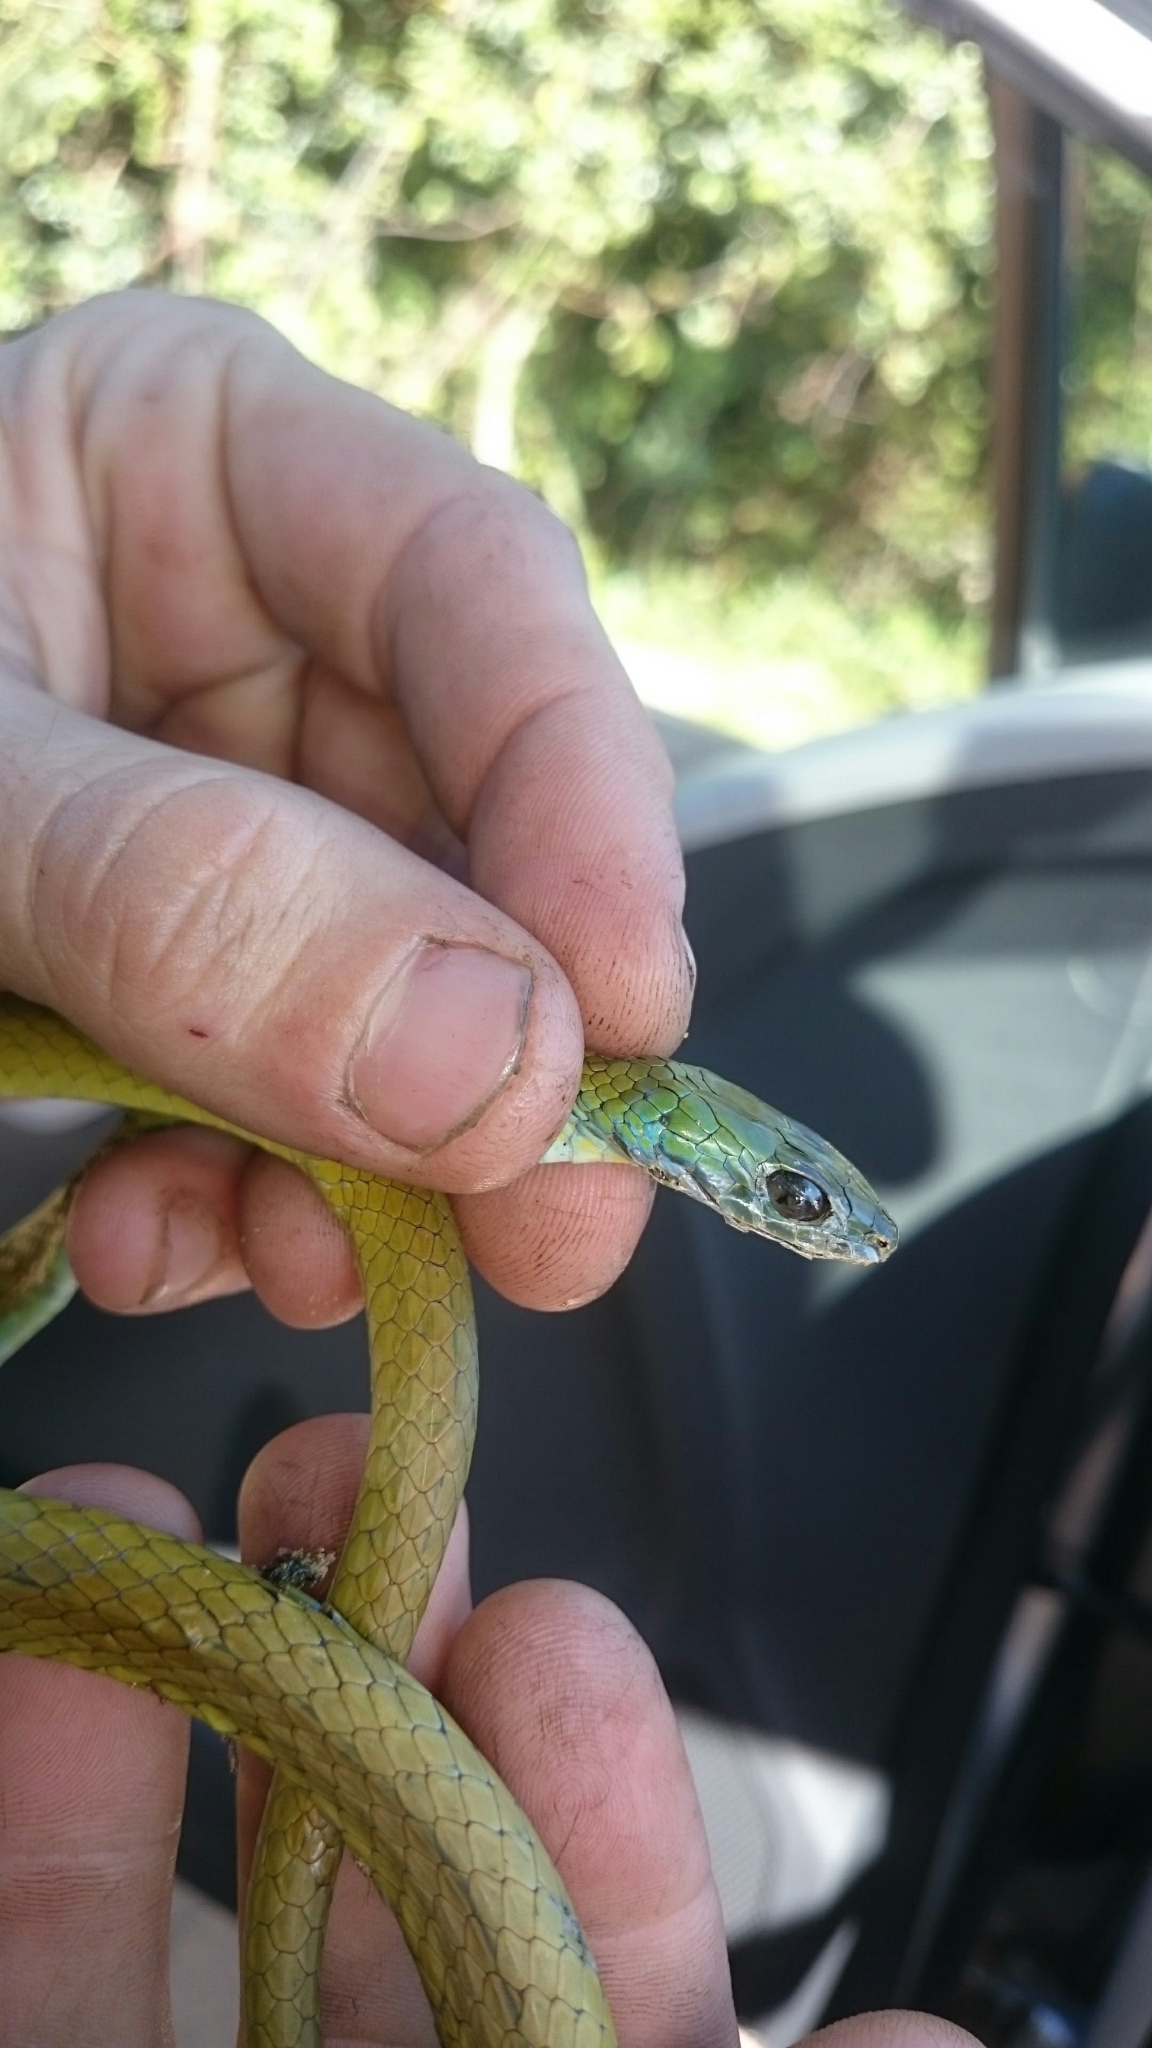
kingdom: Animalia
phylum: Chordata
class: Squamata
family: Colubridae
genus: Philothamnus
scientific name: Philothamnus natalensis
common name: Eastern natal green snake
